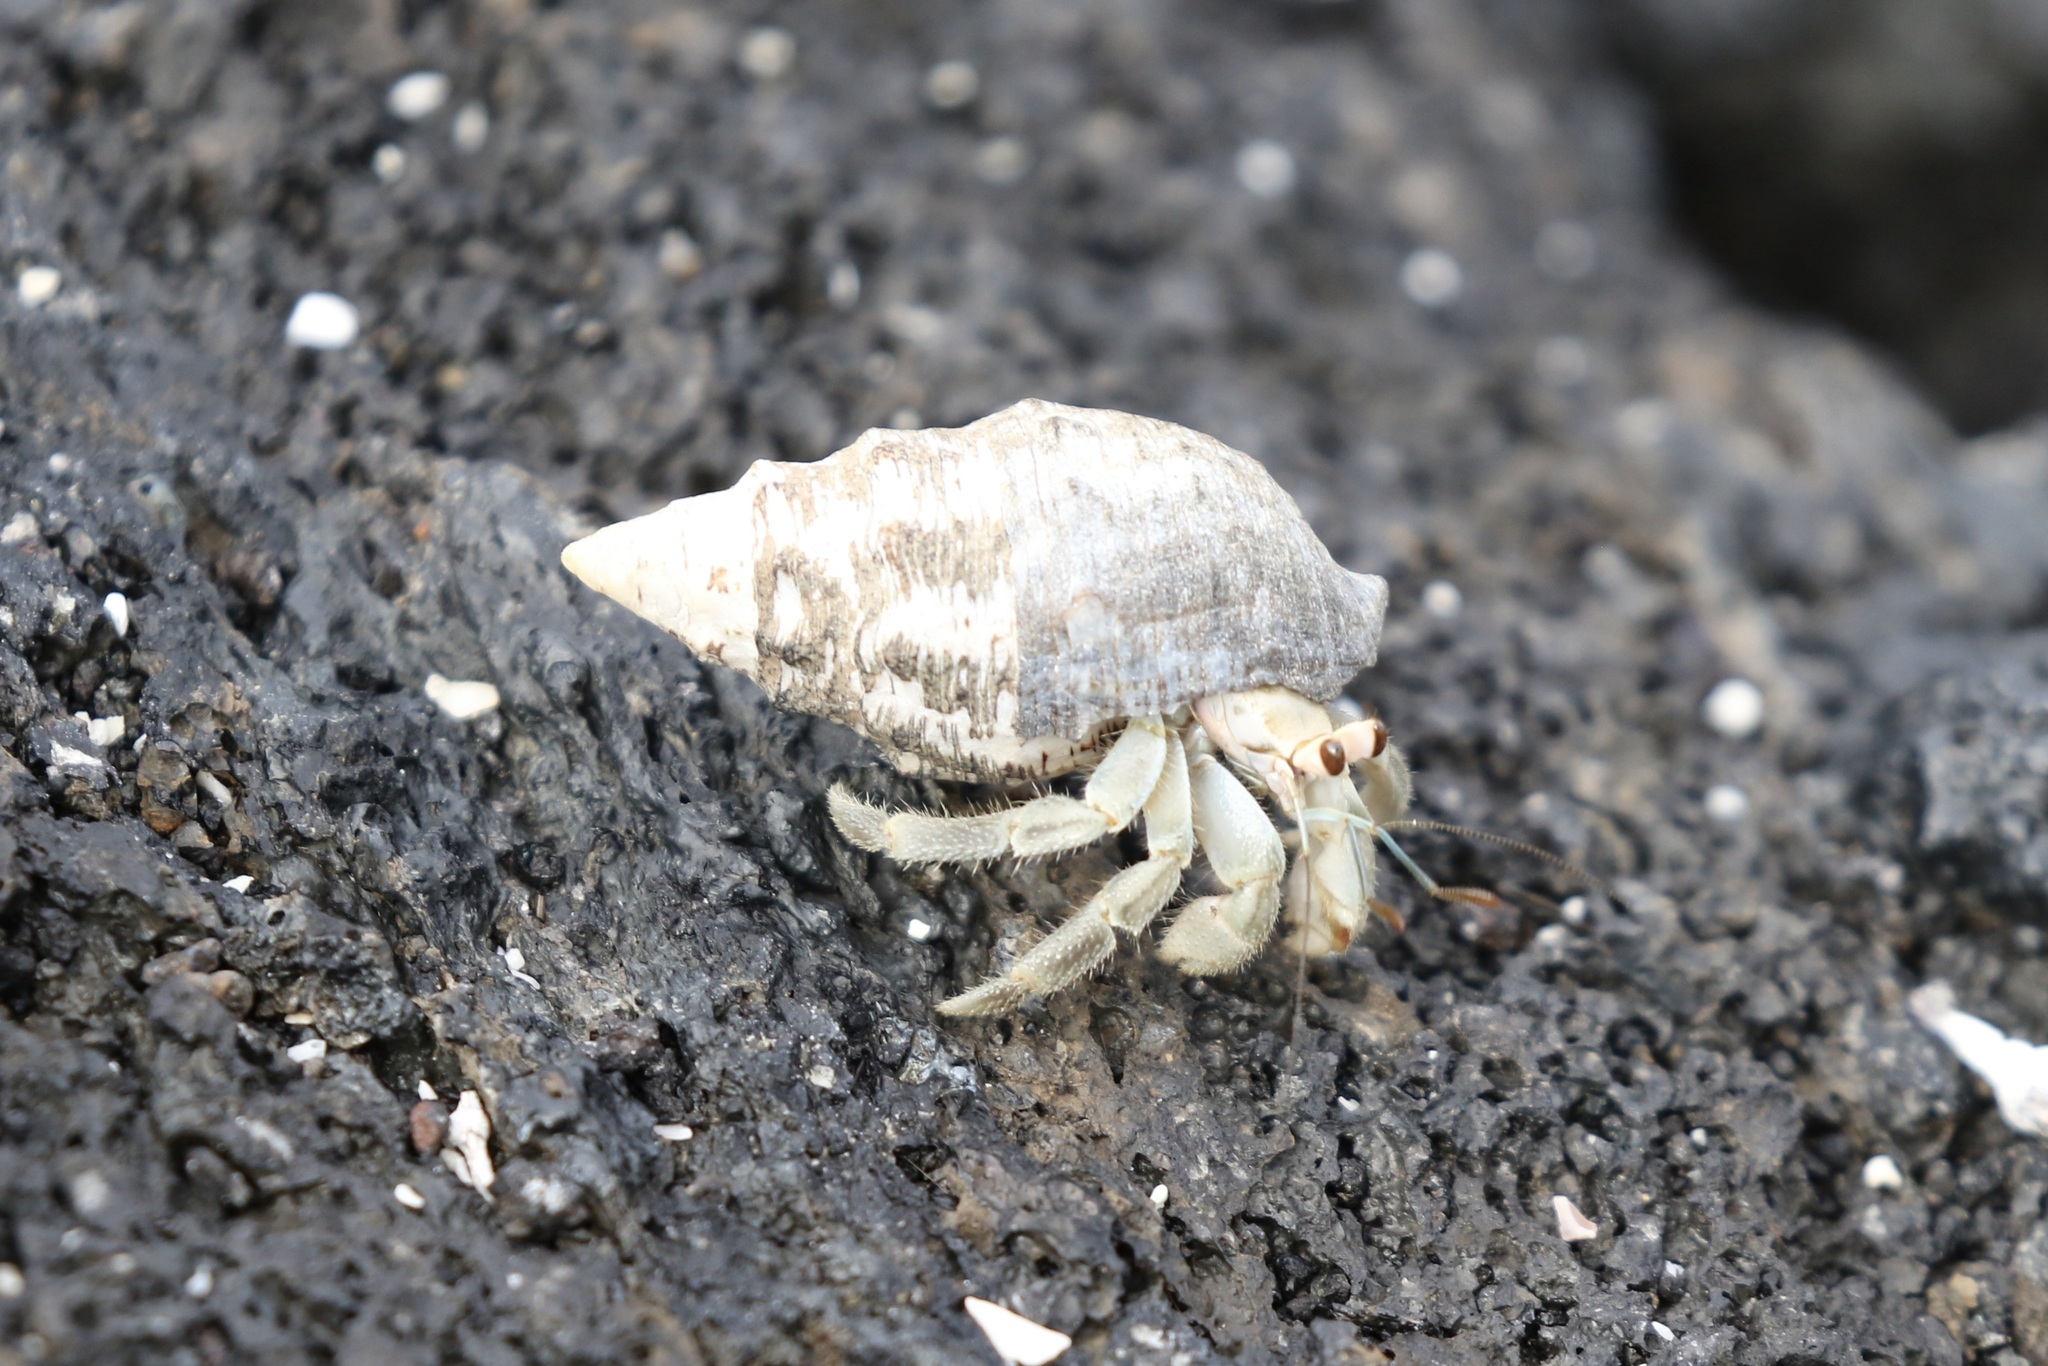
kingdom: Animalia
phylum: Arthropoda
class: Malacostraca
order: Decapoda
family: Coenobitidae
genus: Coenobita
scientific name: Coenobita compressus
